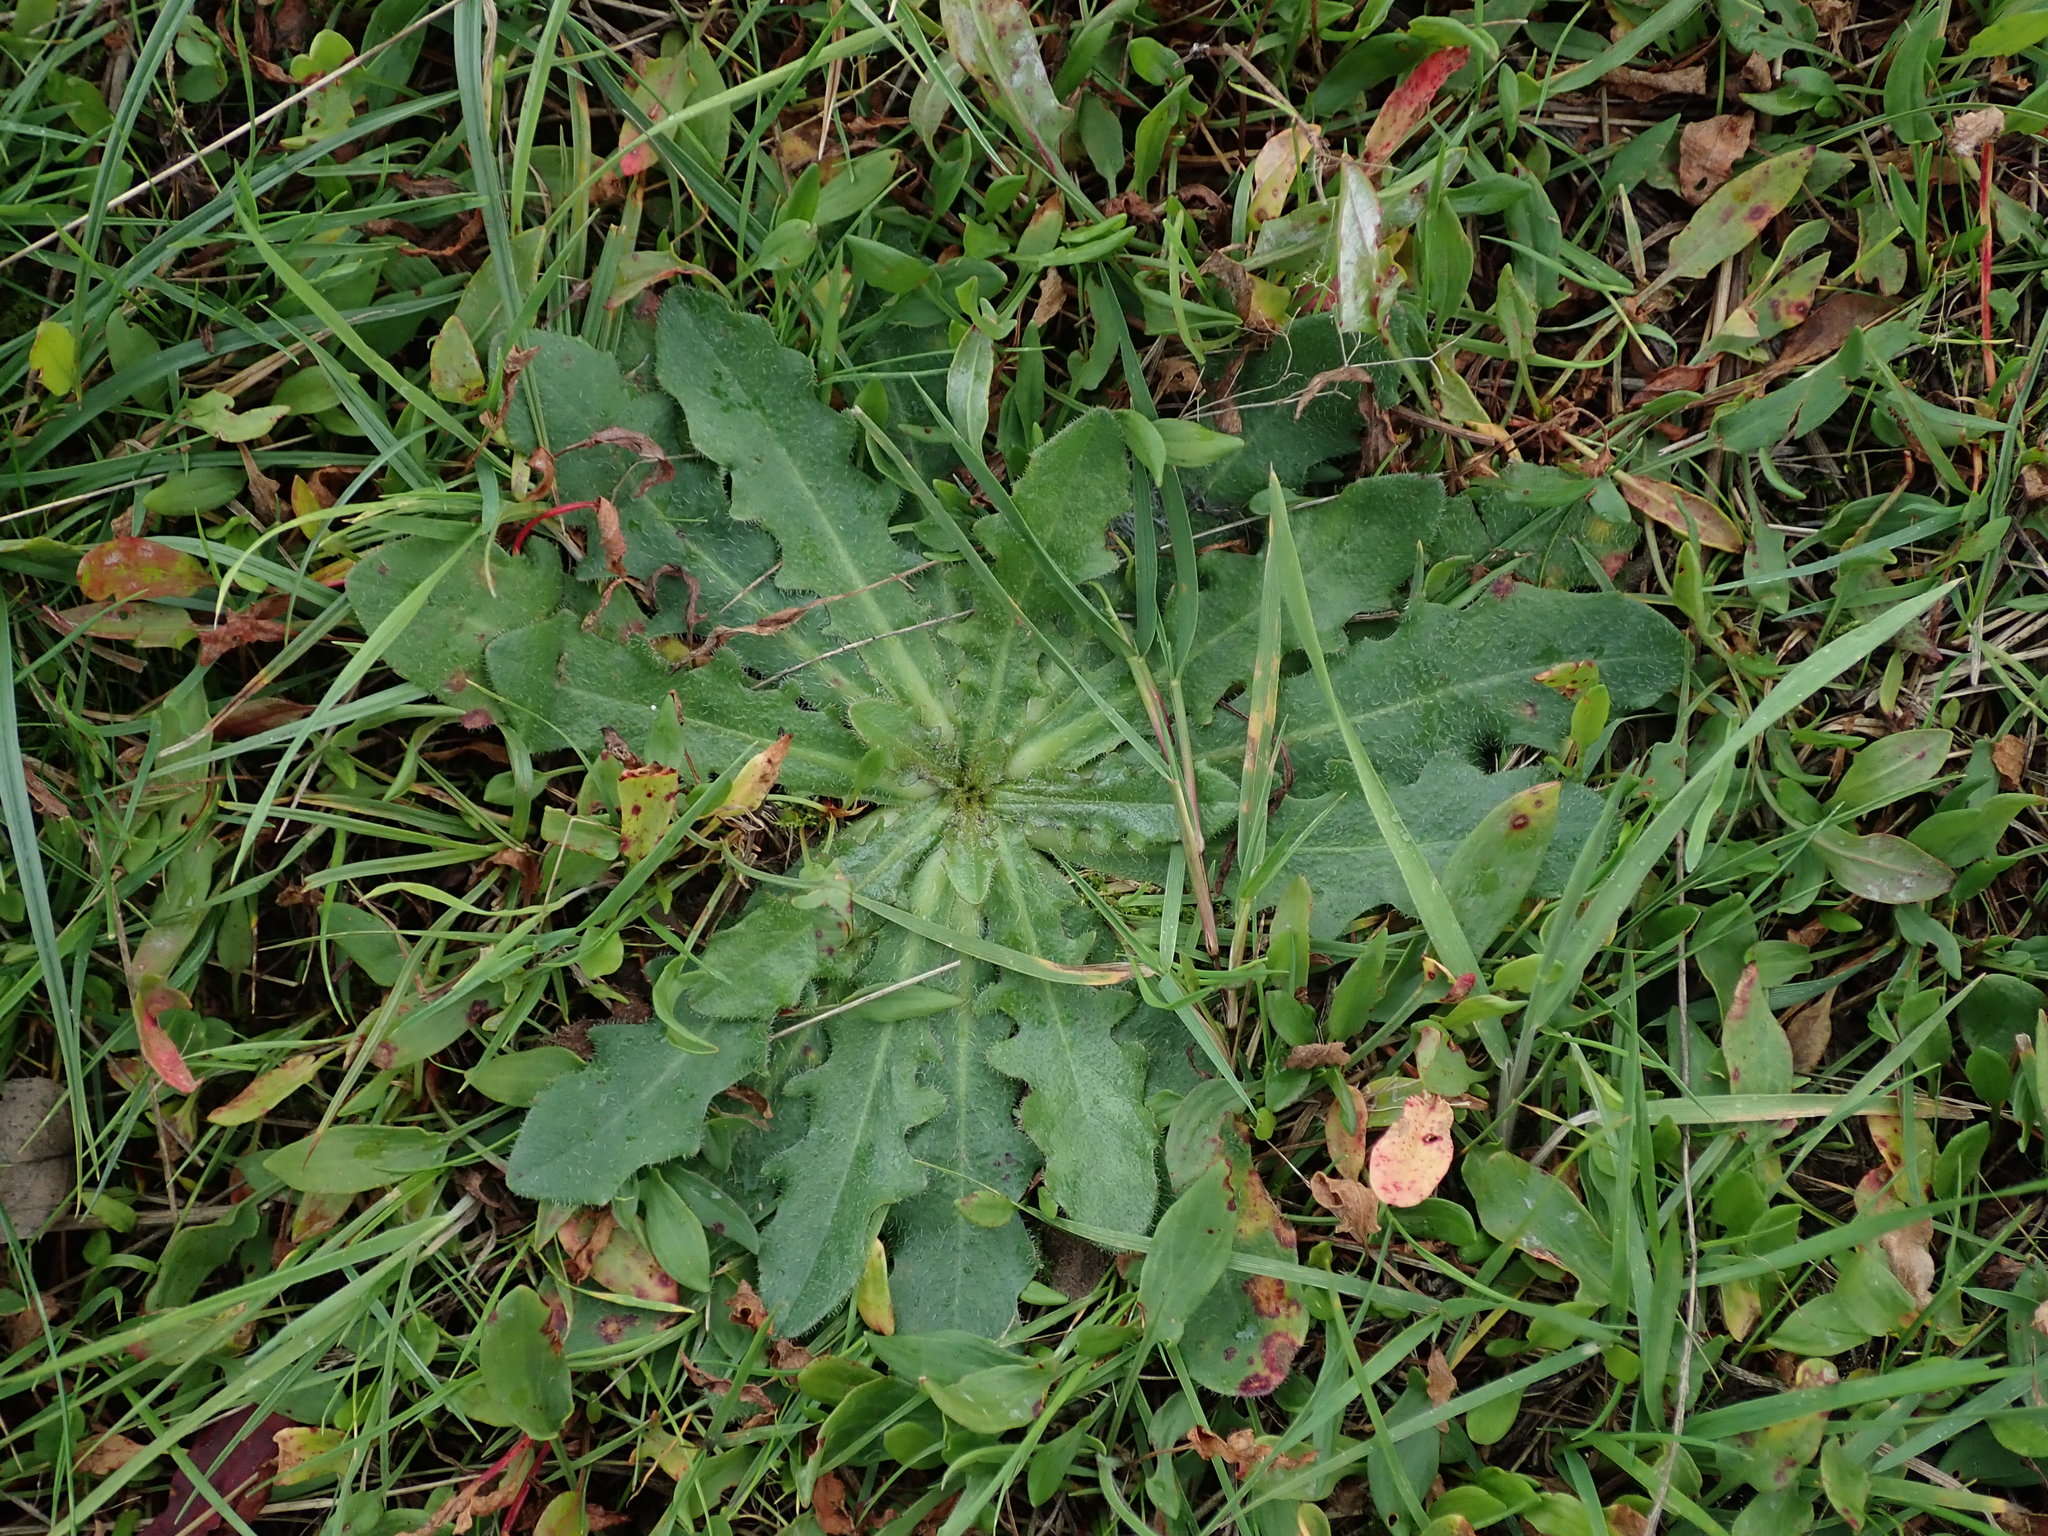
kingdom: Plantae
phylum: Tracheophyta
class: Magnoliopsida
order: Asterales
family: Asteraceae
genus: Hypochaeris
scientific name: Hypochaeris radicata
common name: Flatweed
